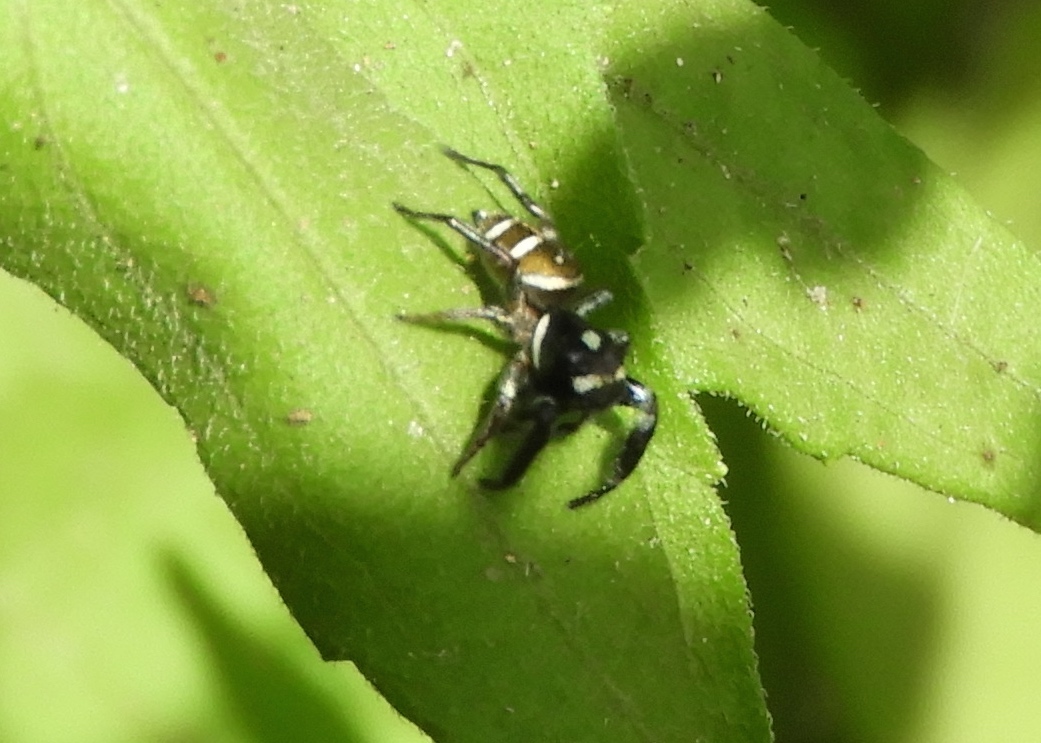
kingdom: Animalia
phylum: Arthropoda
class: Arachnida
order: Araneae
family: Salticidae
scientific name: Salticidae
